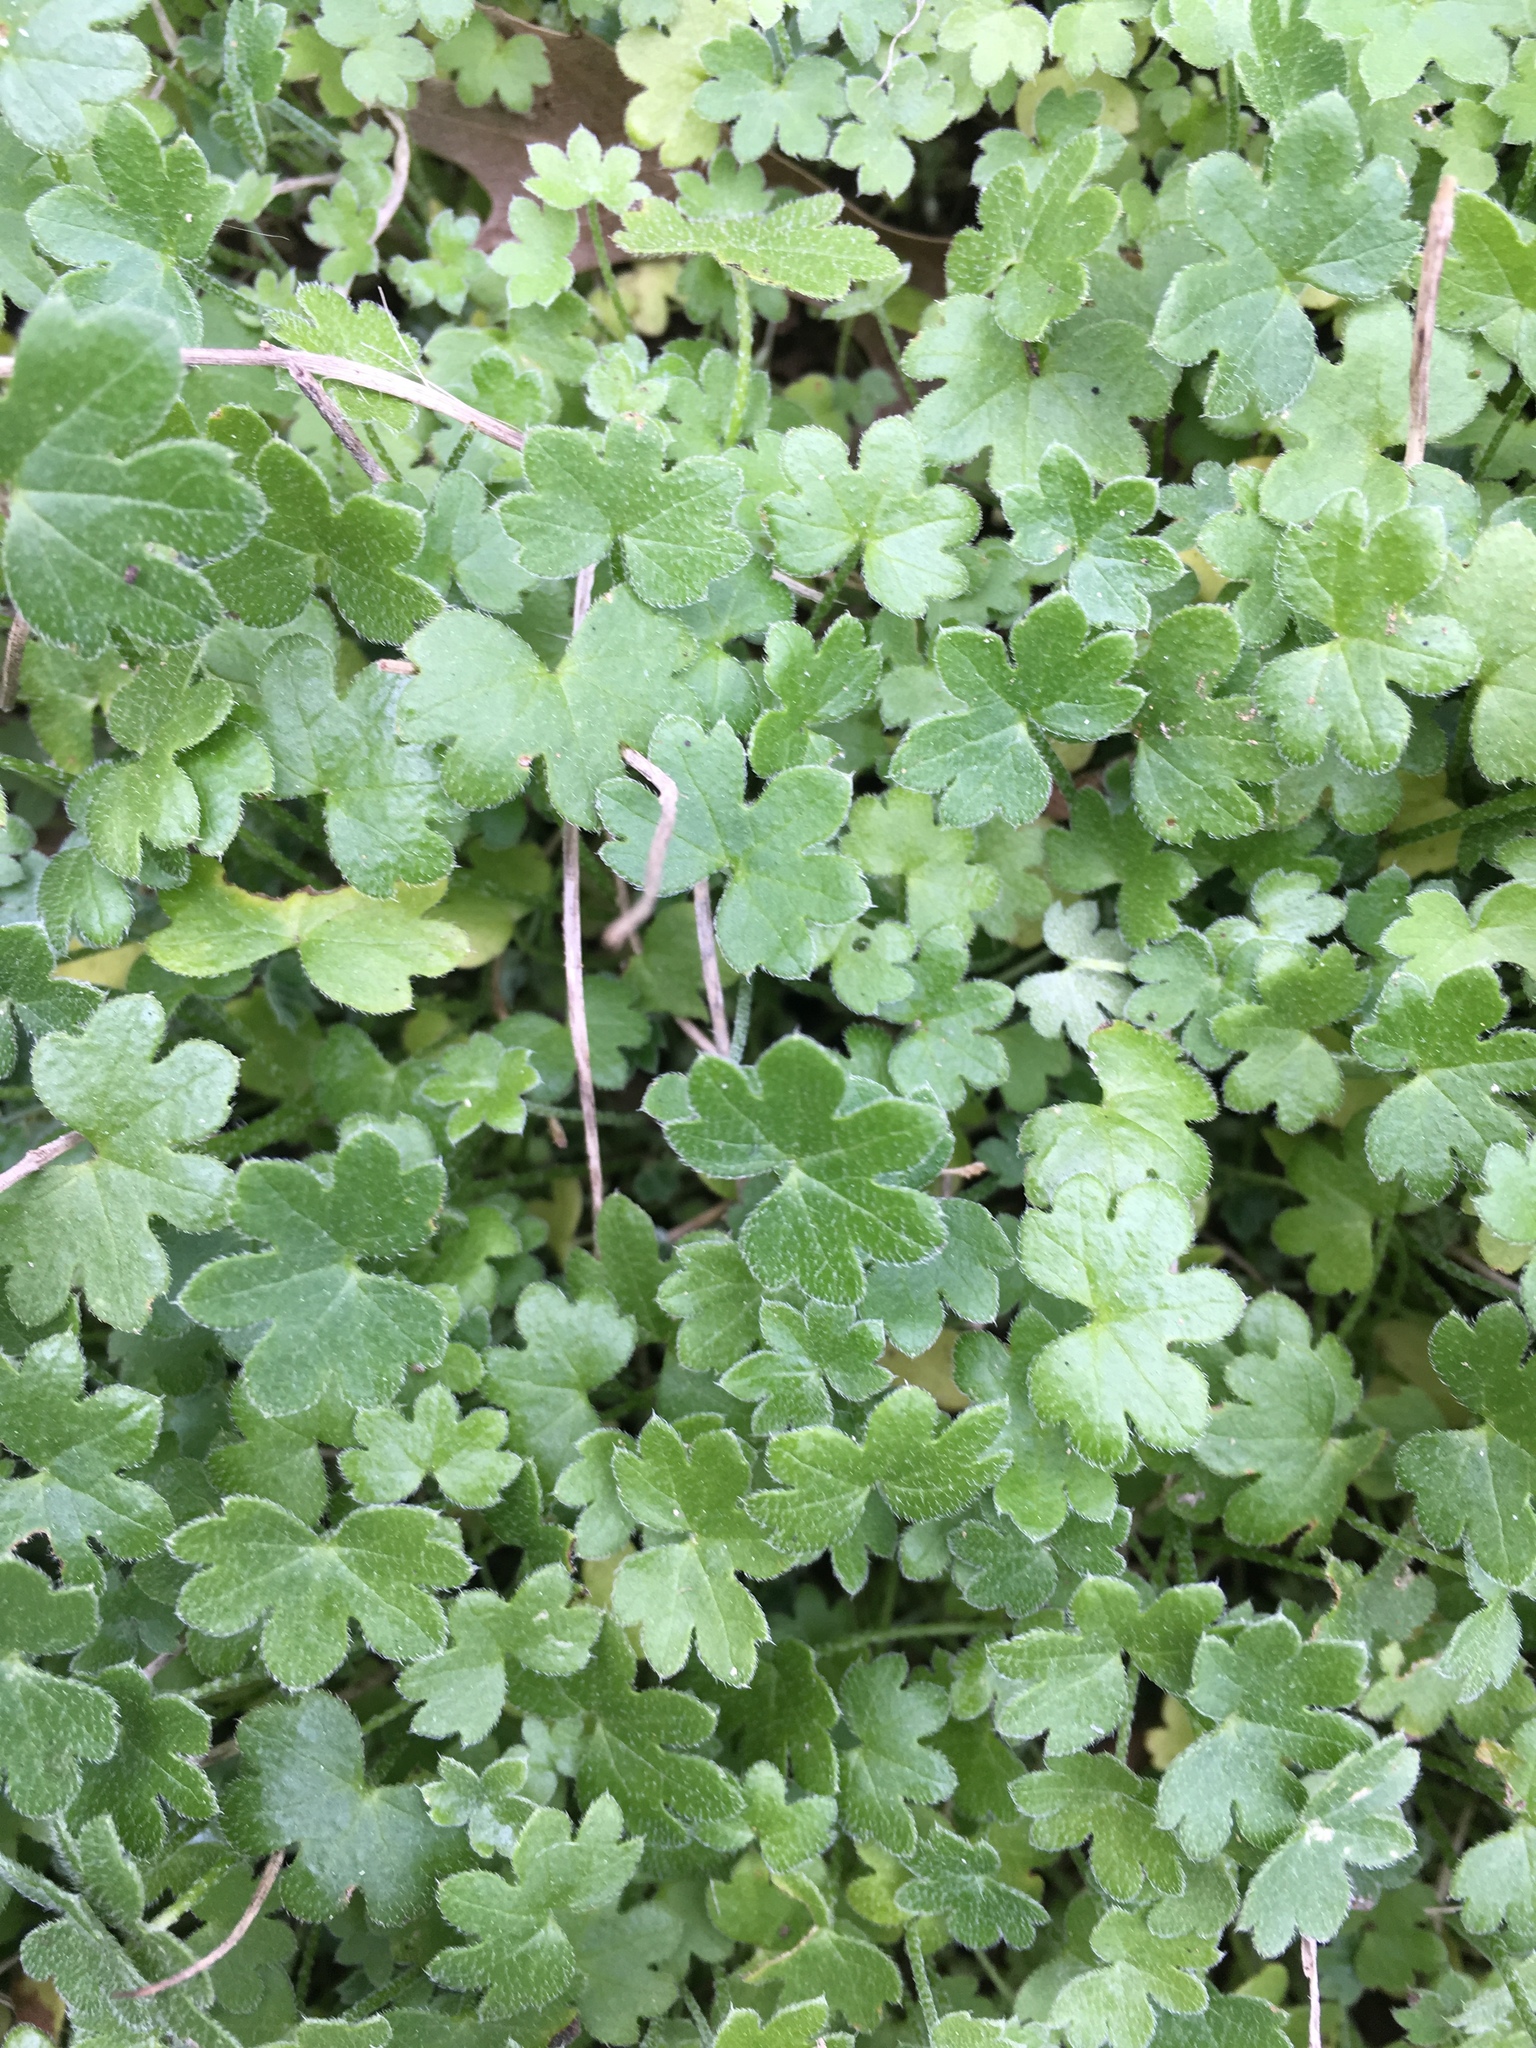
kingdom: Plantae
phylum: Tracheophyta
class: Magnoliopsida
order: Apiales
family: Apiaceae
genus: Bowlesia
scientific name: Bowlesia incana
